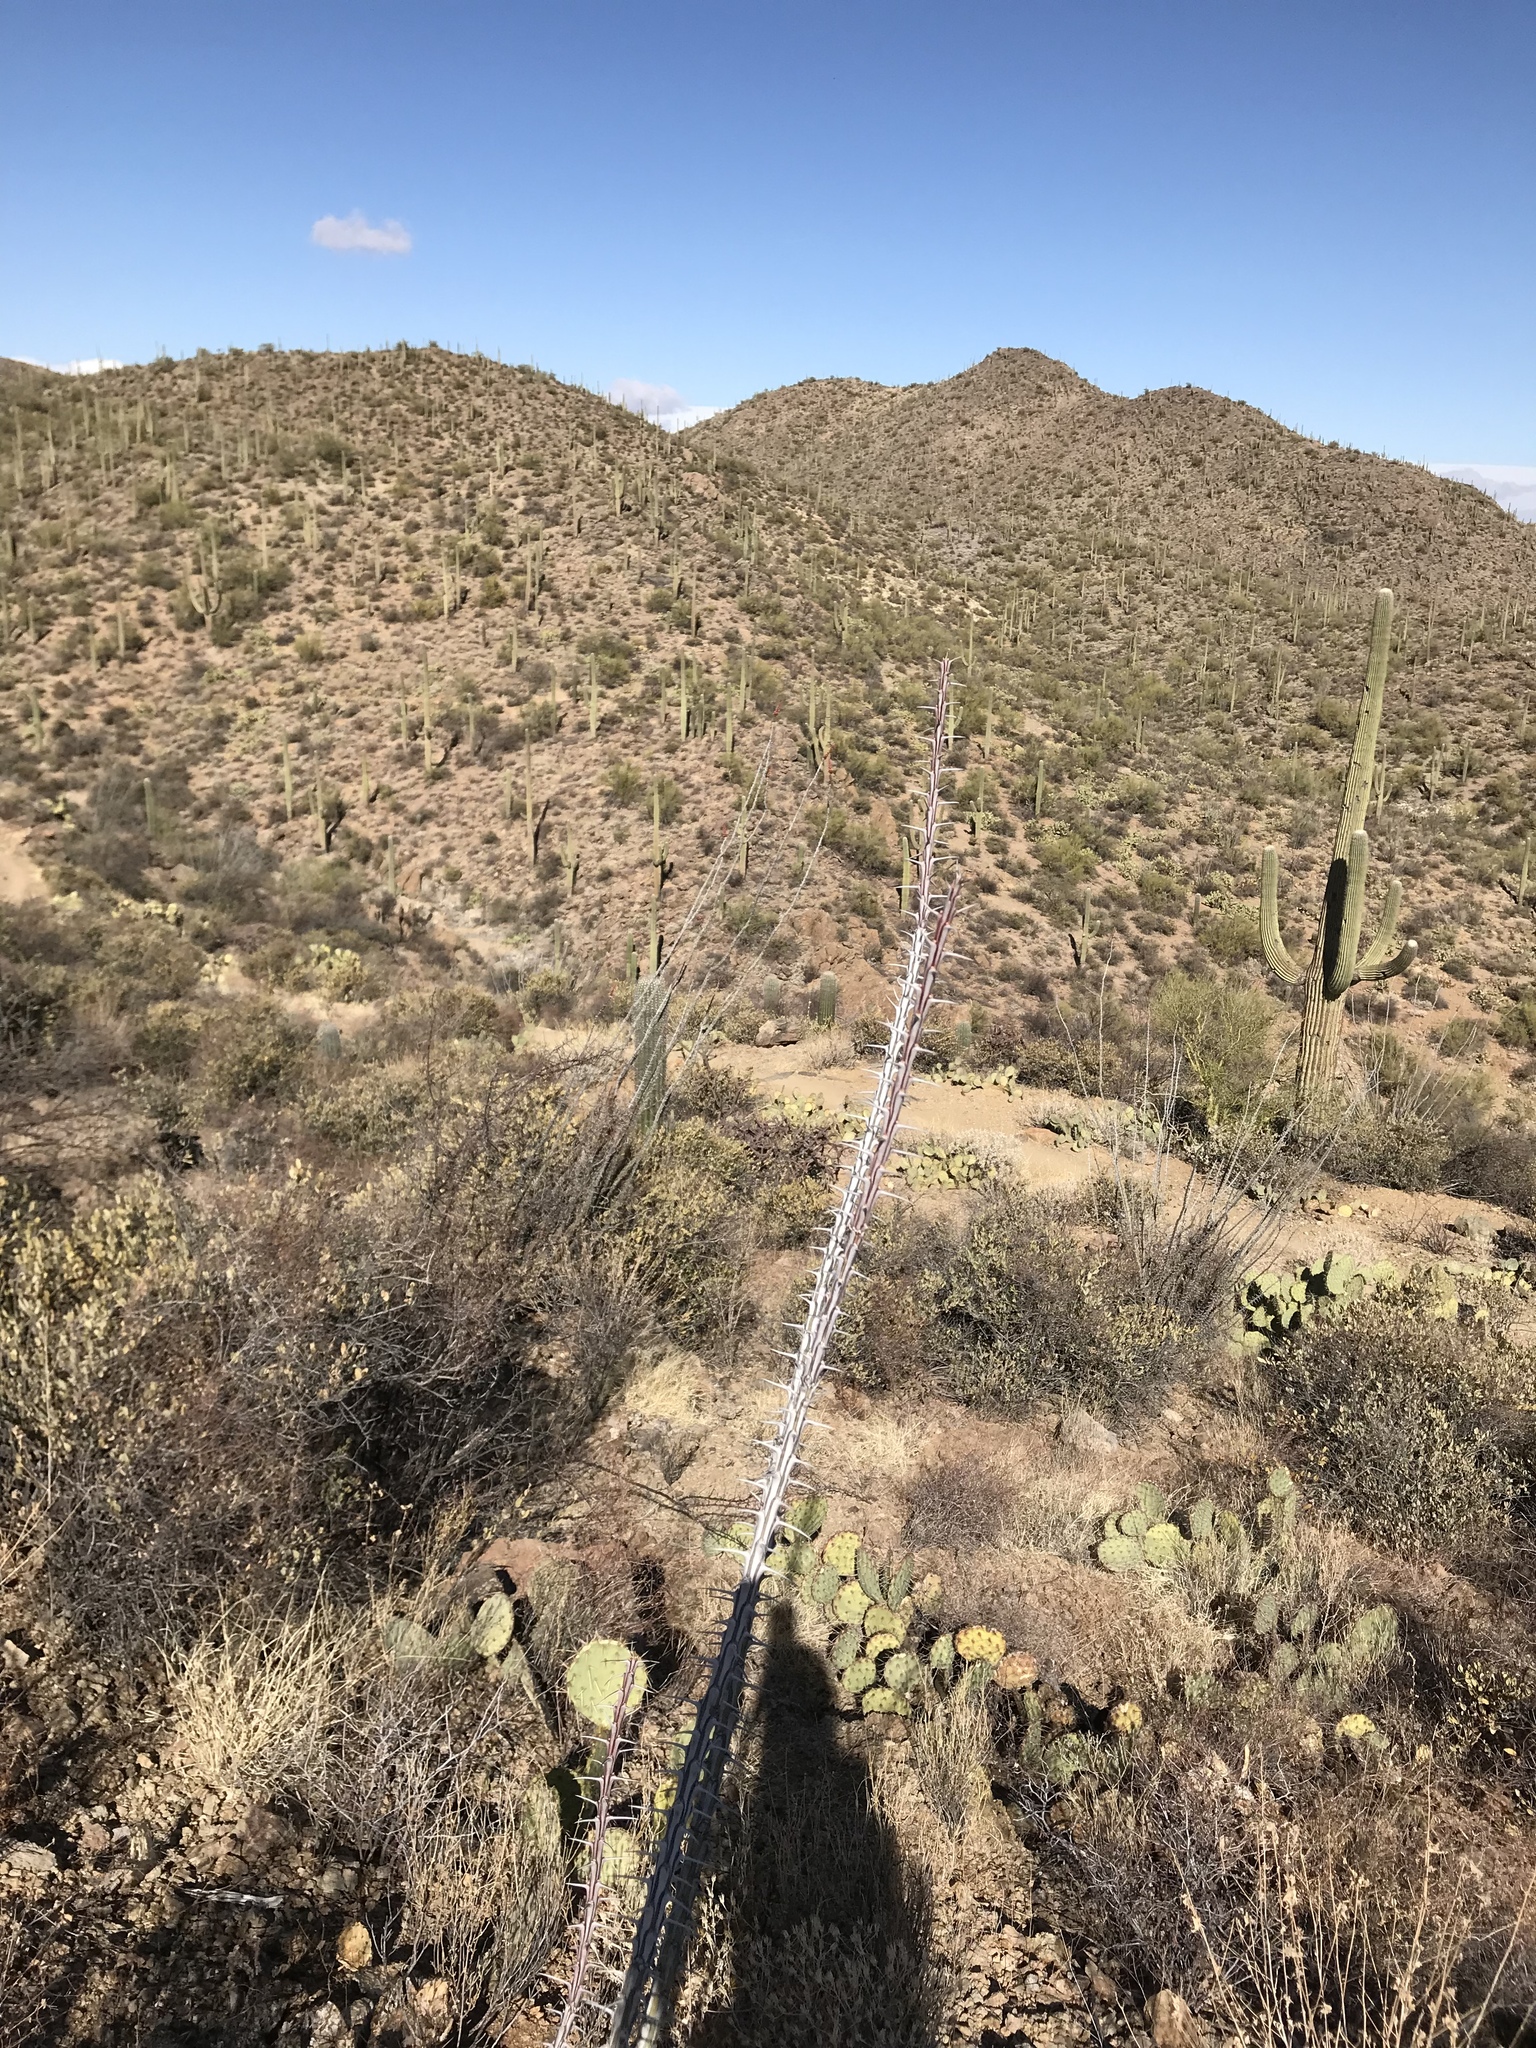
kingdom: Plantae
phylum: Tracheophyta
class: Magnoliopsida
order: Ericales
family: Fouquieriaceae
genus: Fouquieria
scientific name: Fouquieria splendens
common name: Vine-cactus
